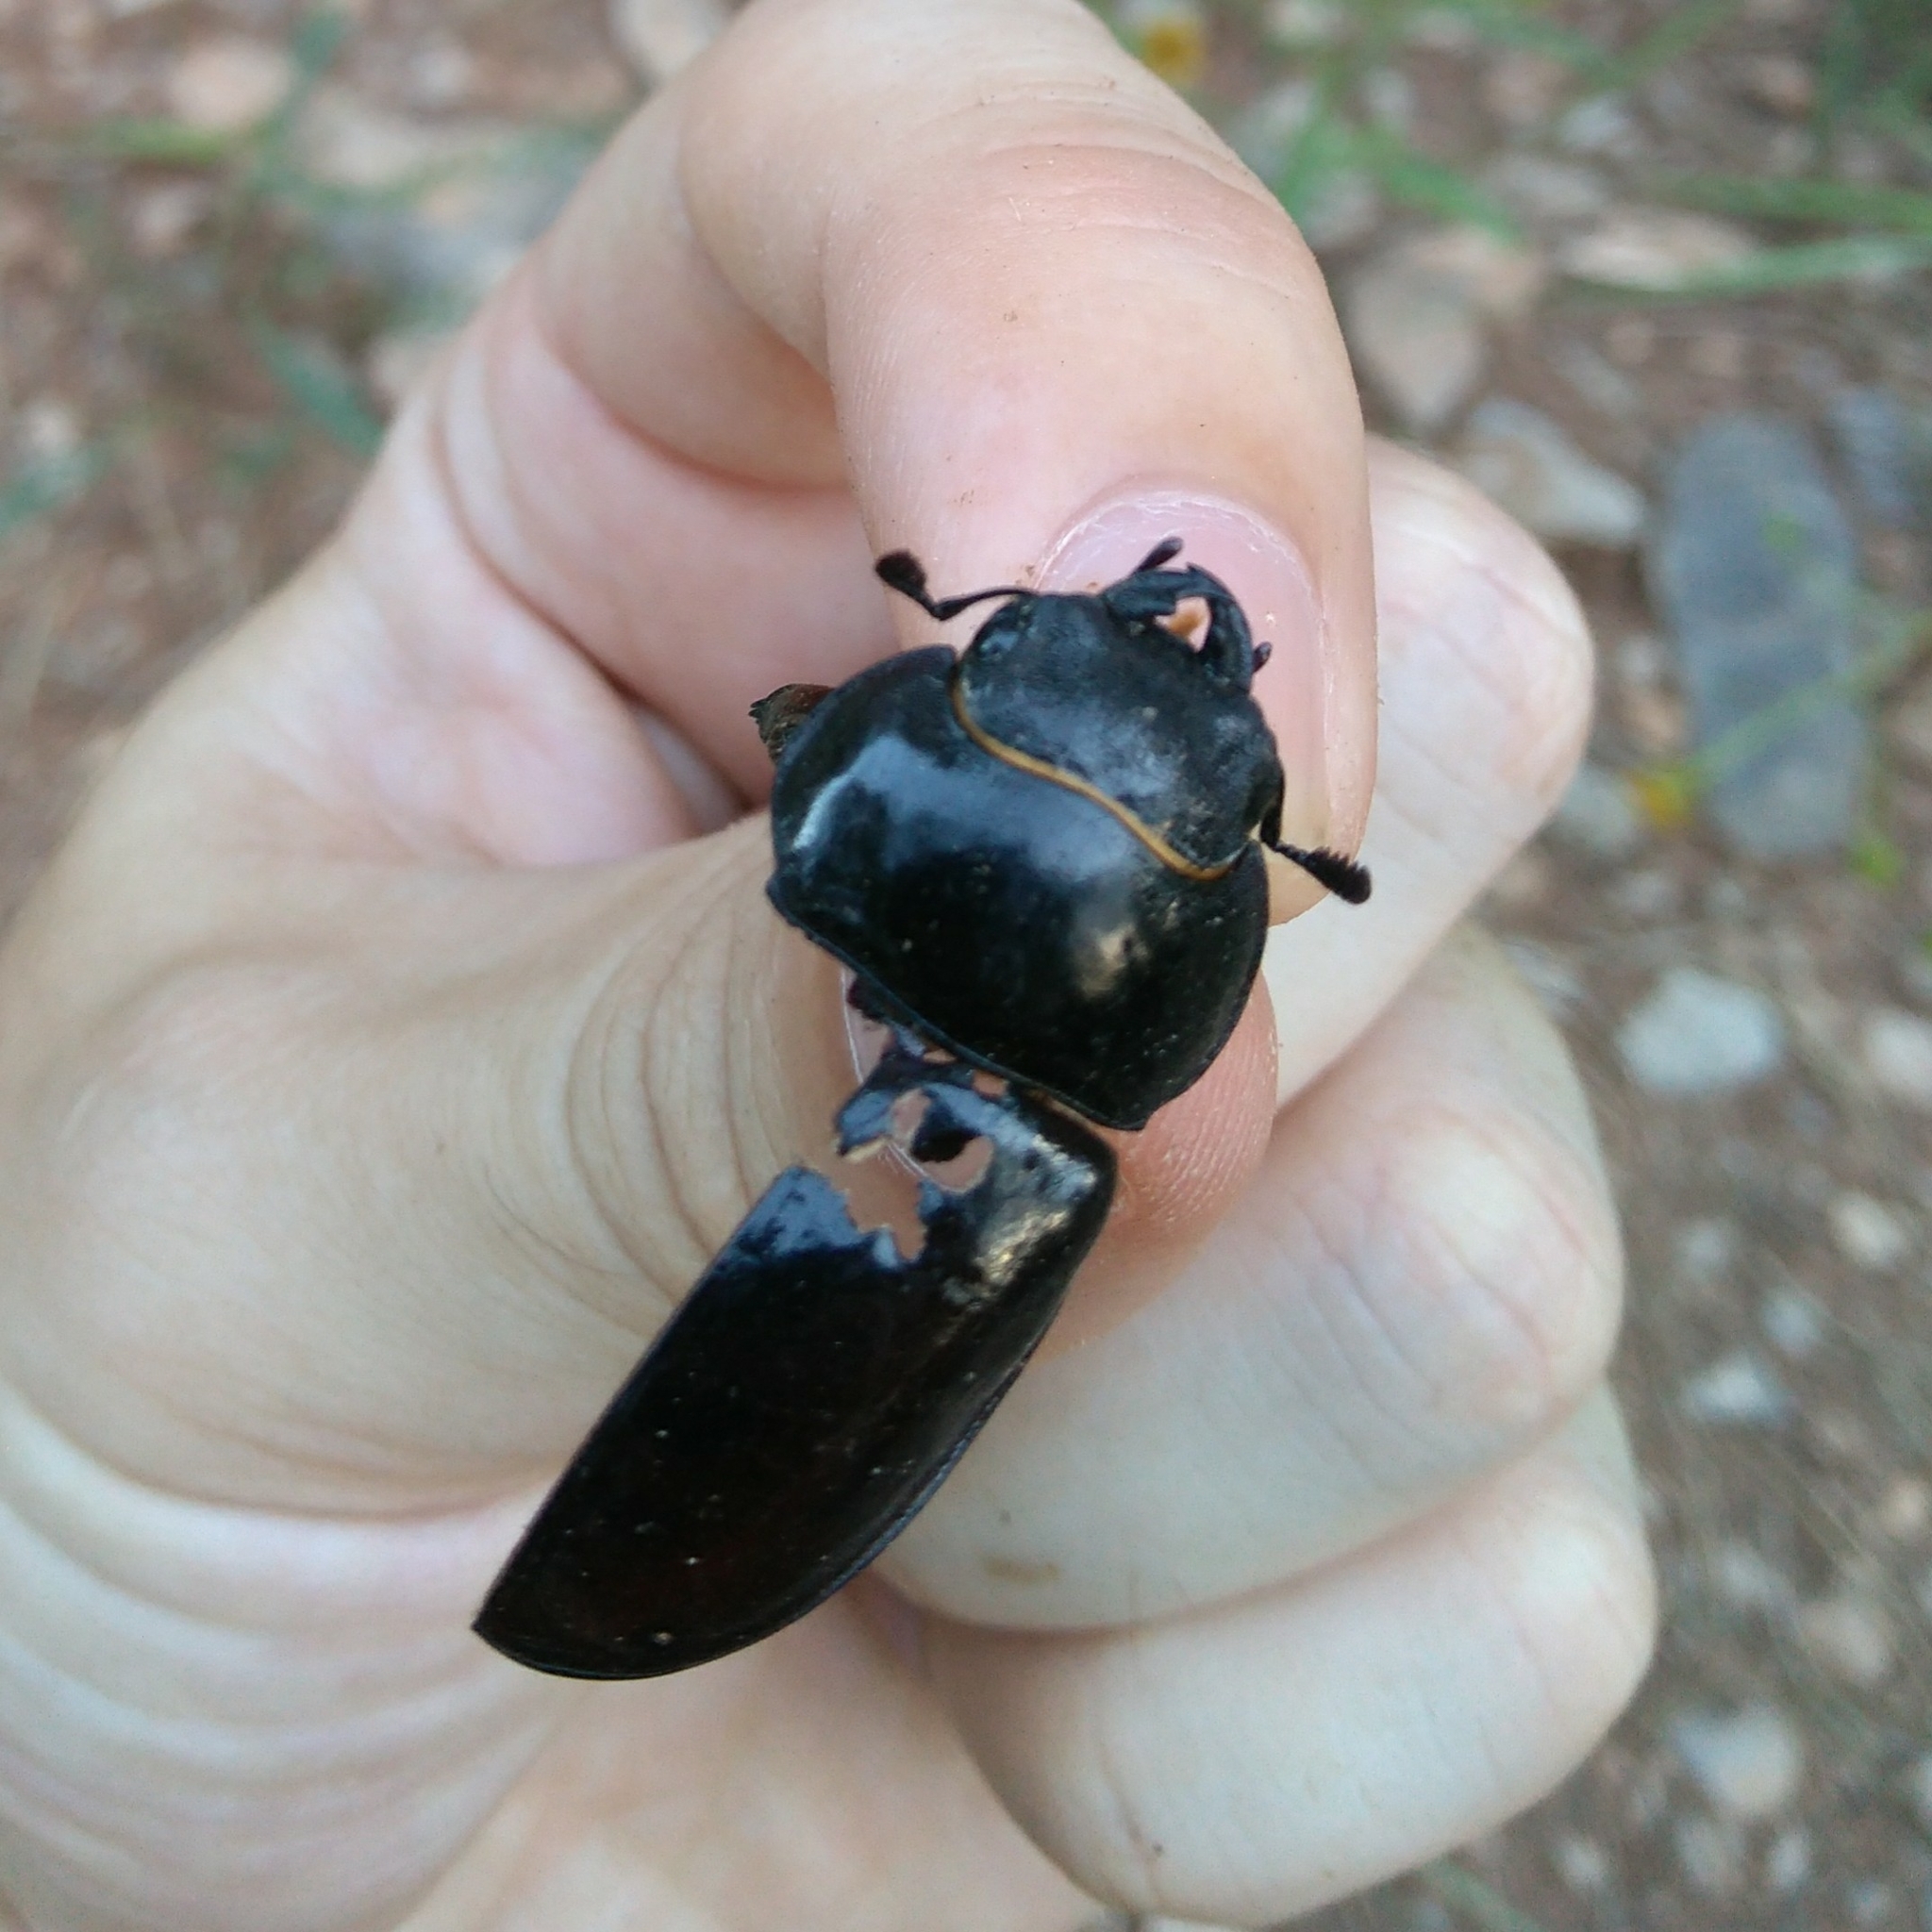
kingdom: Animalia
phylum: Arthropoda
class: Insecta
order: Coleoptera
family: Lucanidae
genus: Lucanus
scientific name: Lucanus barbarossa
